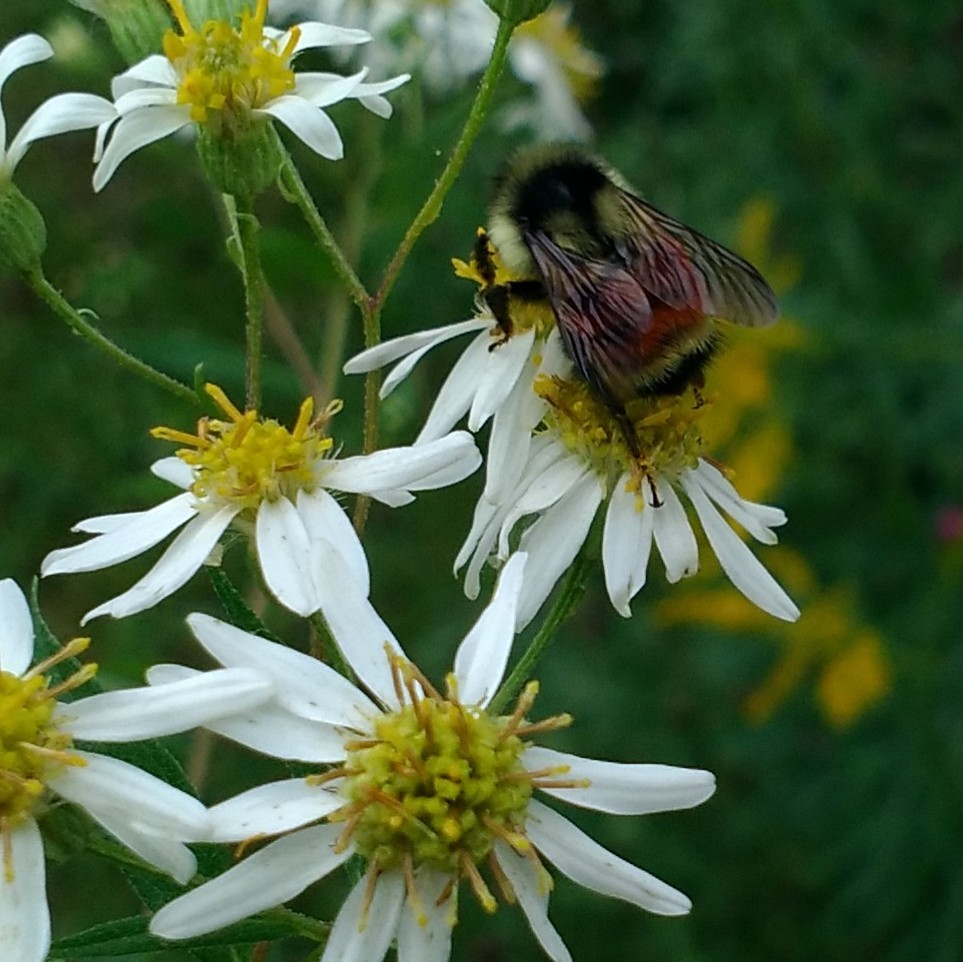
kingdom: Animalia
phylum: Arthropoda
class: Insecta
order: Hymenoptera
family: Apidae
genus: Bombus
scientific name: Bombus ternarius
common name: Tri-colored bumble bee
